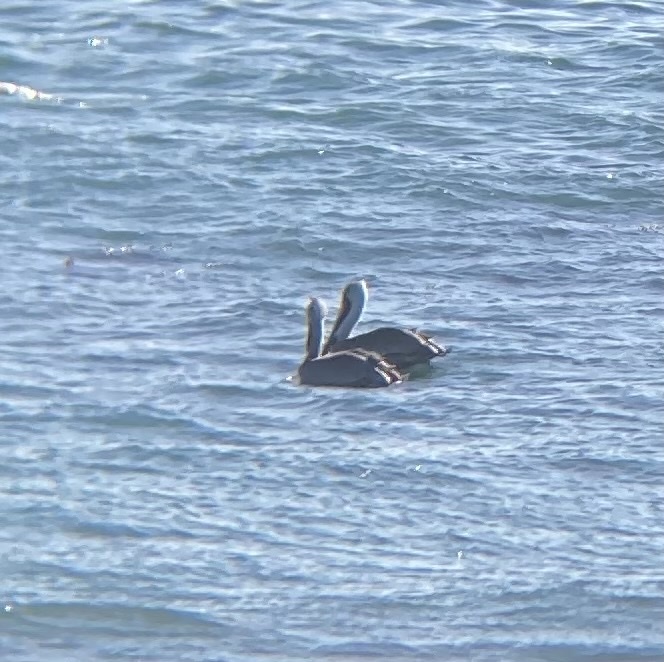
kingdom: Animalia
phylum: Chordata
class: Aves
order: Pelecaniformes
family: Pelecanidae
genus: Pelecanus
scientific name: Pelecanus occidentalis
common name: Brown pelican
